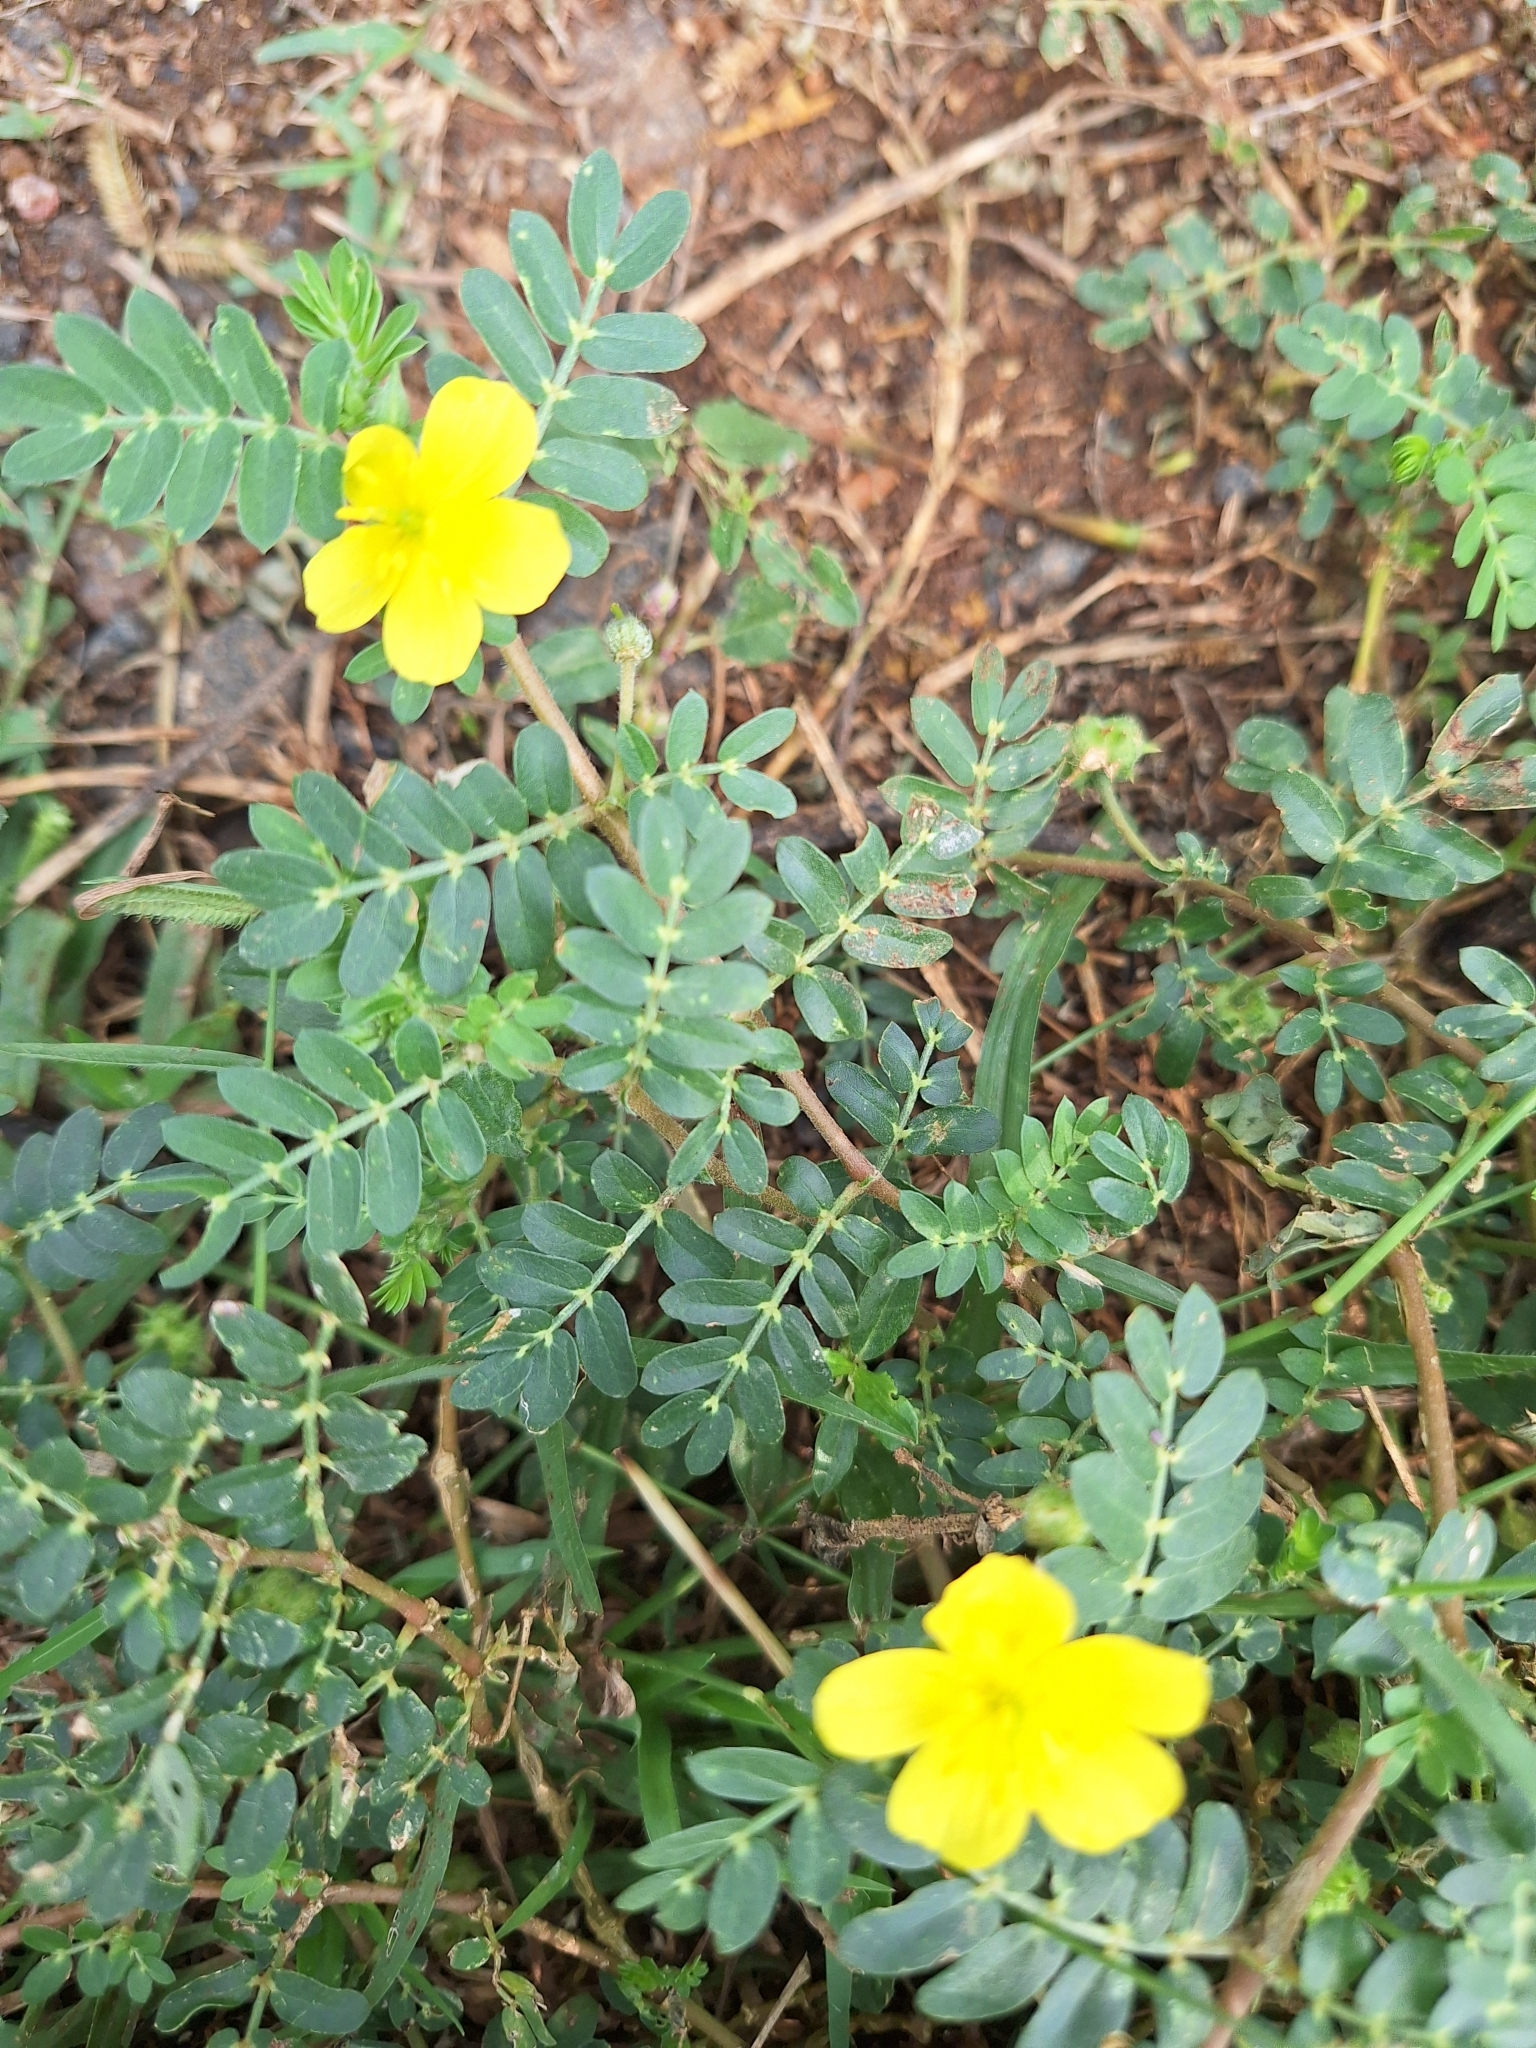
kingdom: Plantae
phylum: Tracheophyta
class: Magnoliopsida
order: Zygophyllales
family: Zygophyllaceae
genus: Tribulus
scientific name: Tribulus terrestris
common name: Puncturevine
